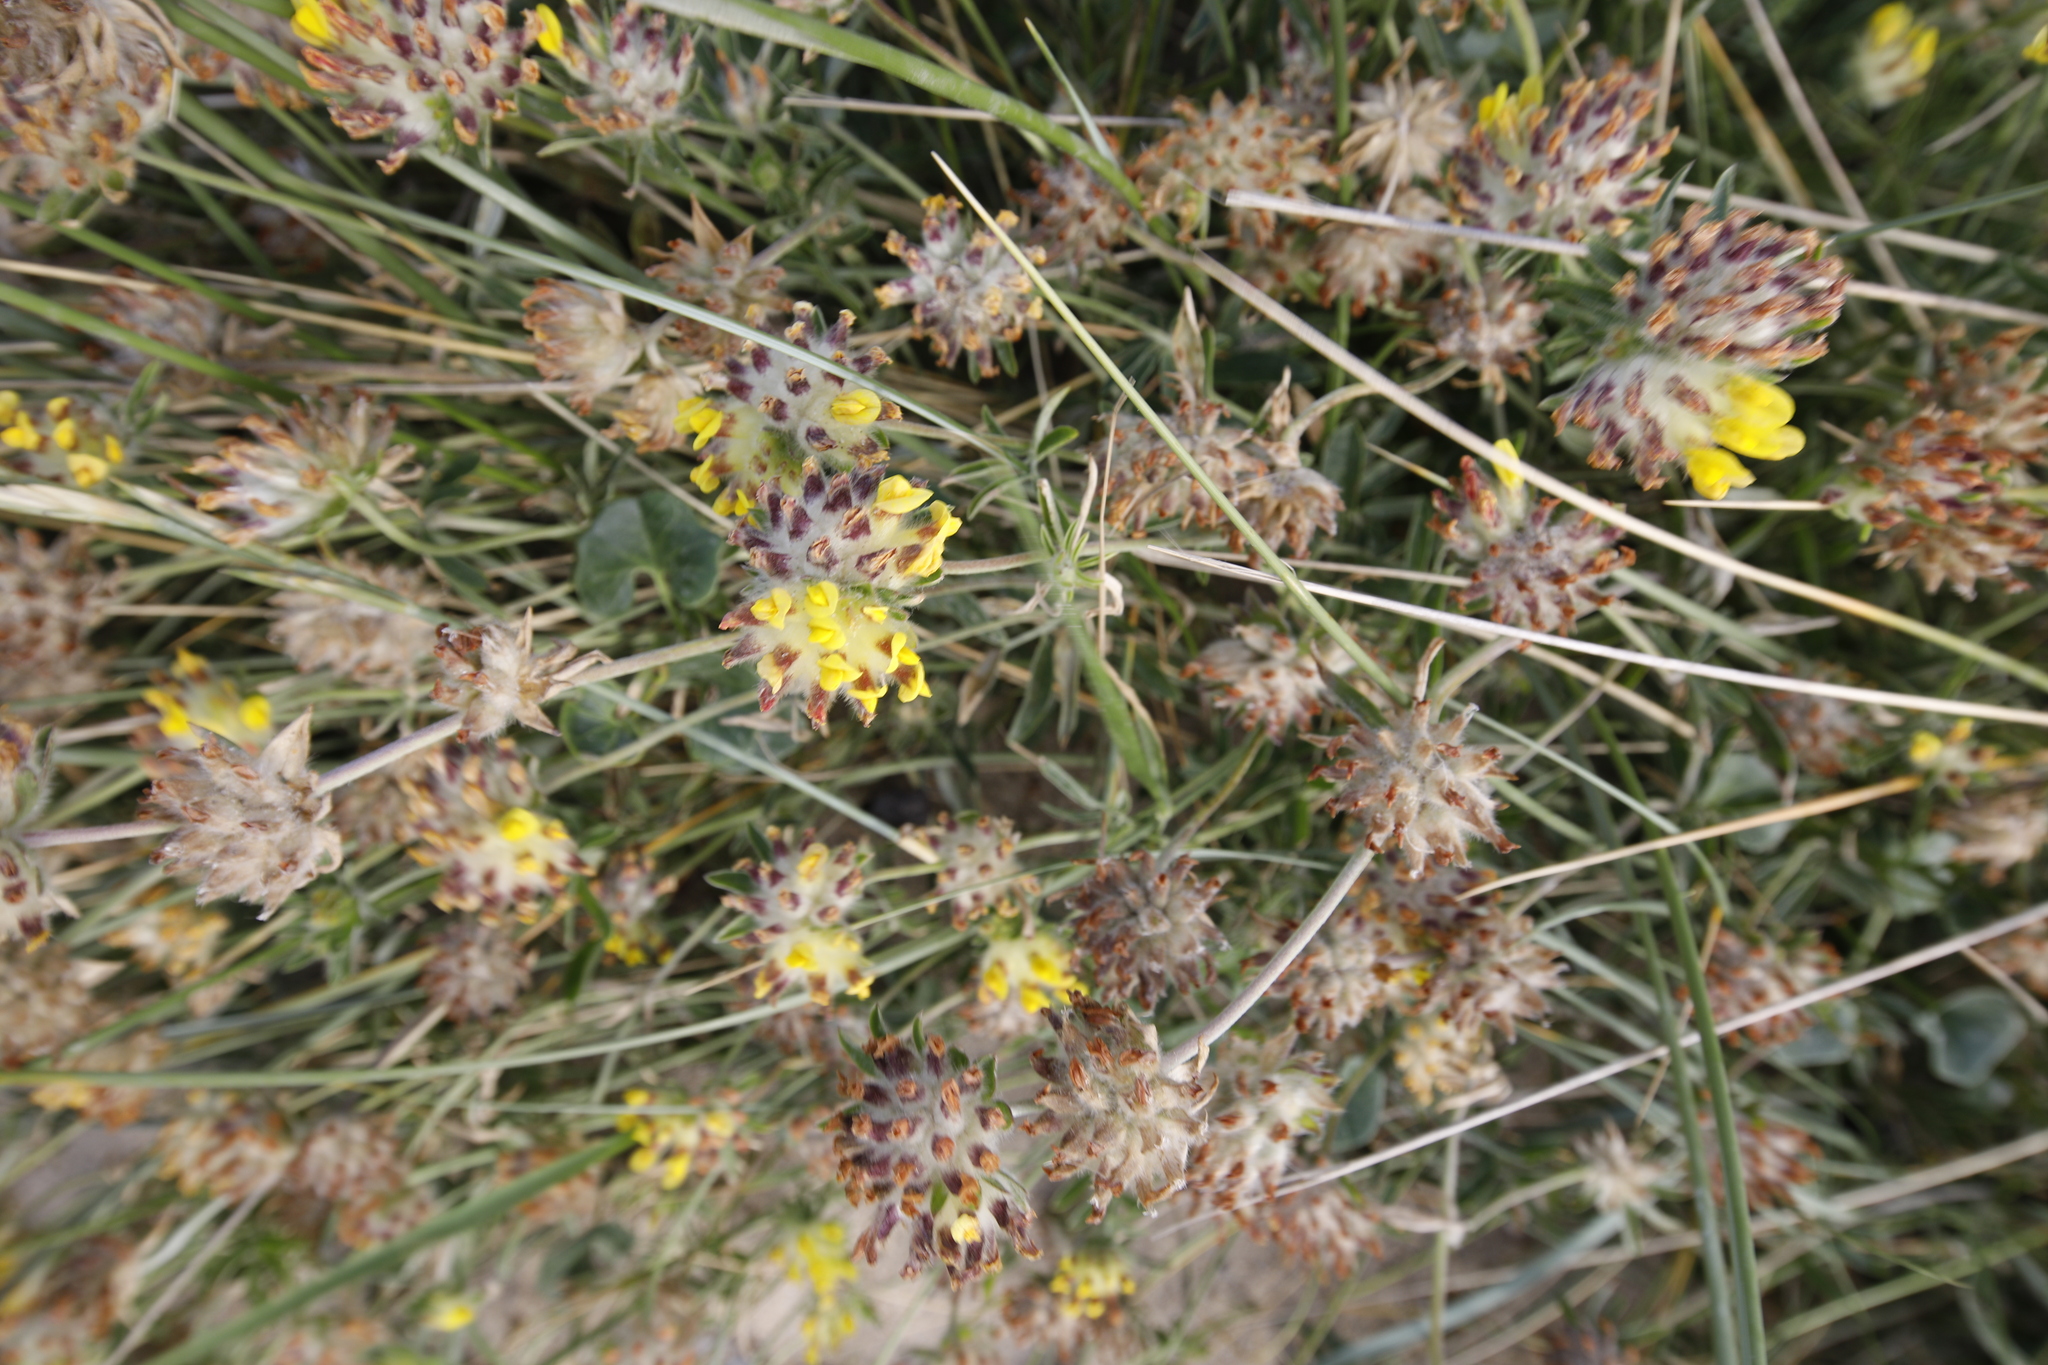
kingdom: Plantae
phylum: Tracheophyta
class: Magnoliopsida
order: Fabales
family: Fabaceae
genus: Anthyllis
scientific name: Anthyllis vulneraria
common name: Kidney vetch
